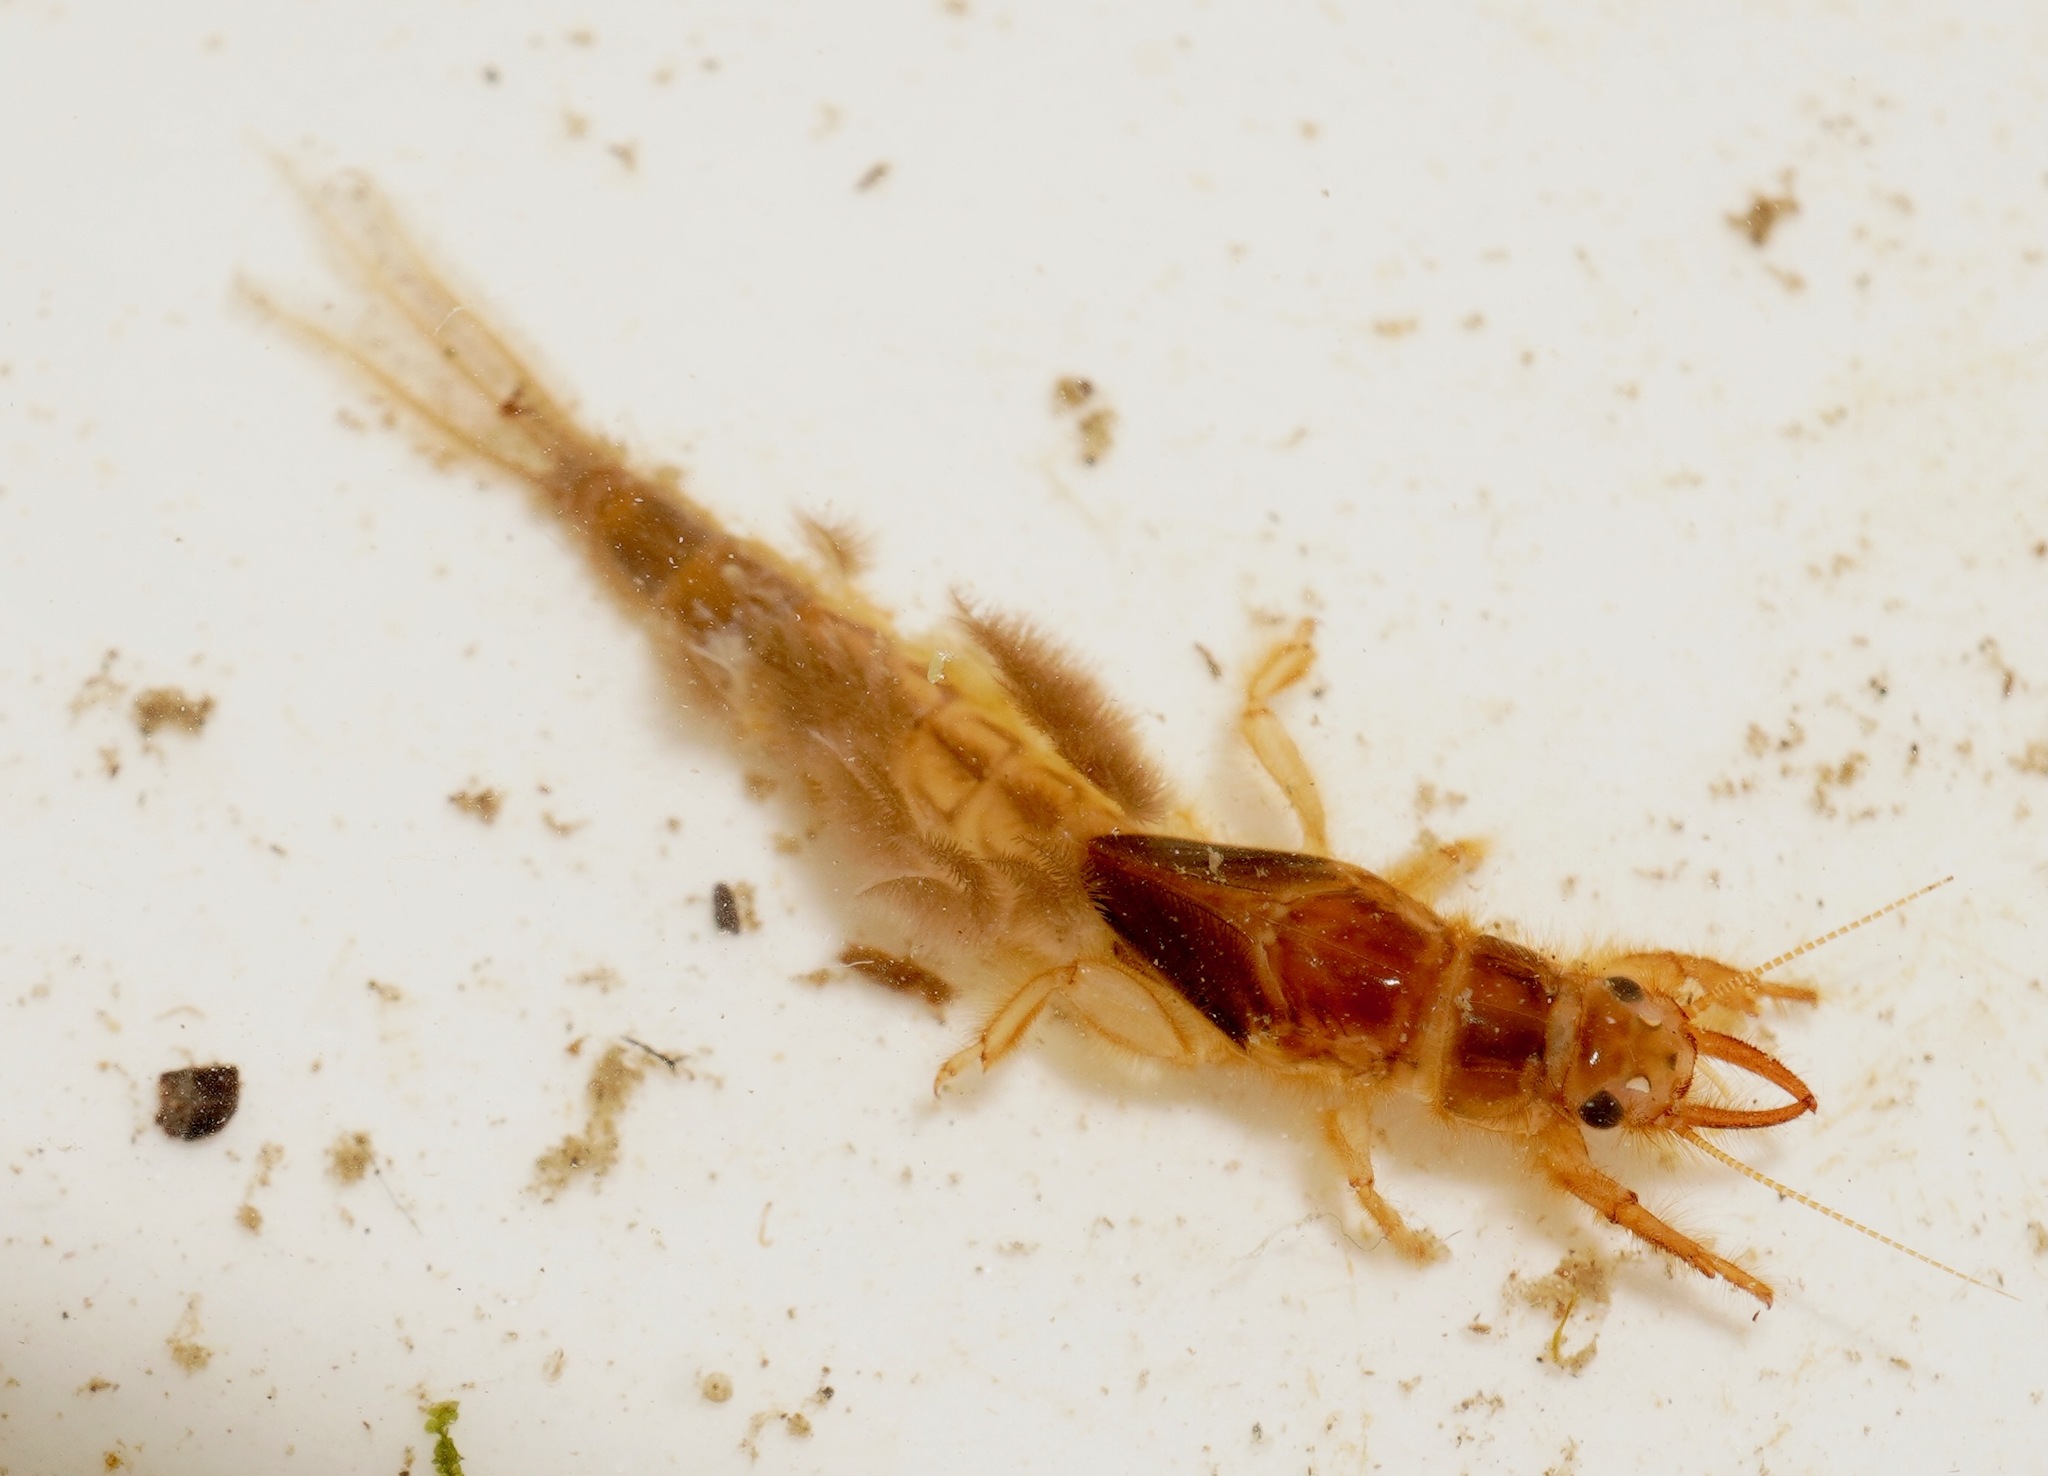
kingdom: Animalia
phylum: Arthropoda
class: Insecta
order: Ephemeroptera
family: Ichthybotidae
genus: Ichthybotus
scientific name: Ichthybotus hudsoni
